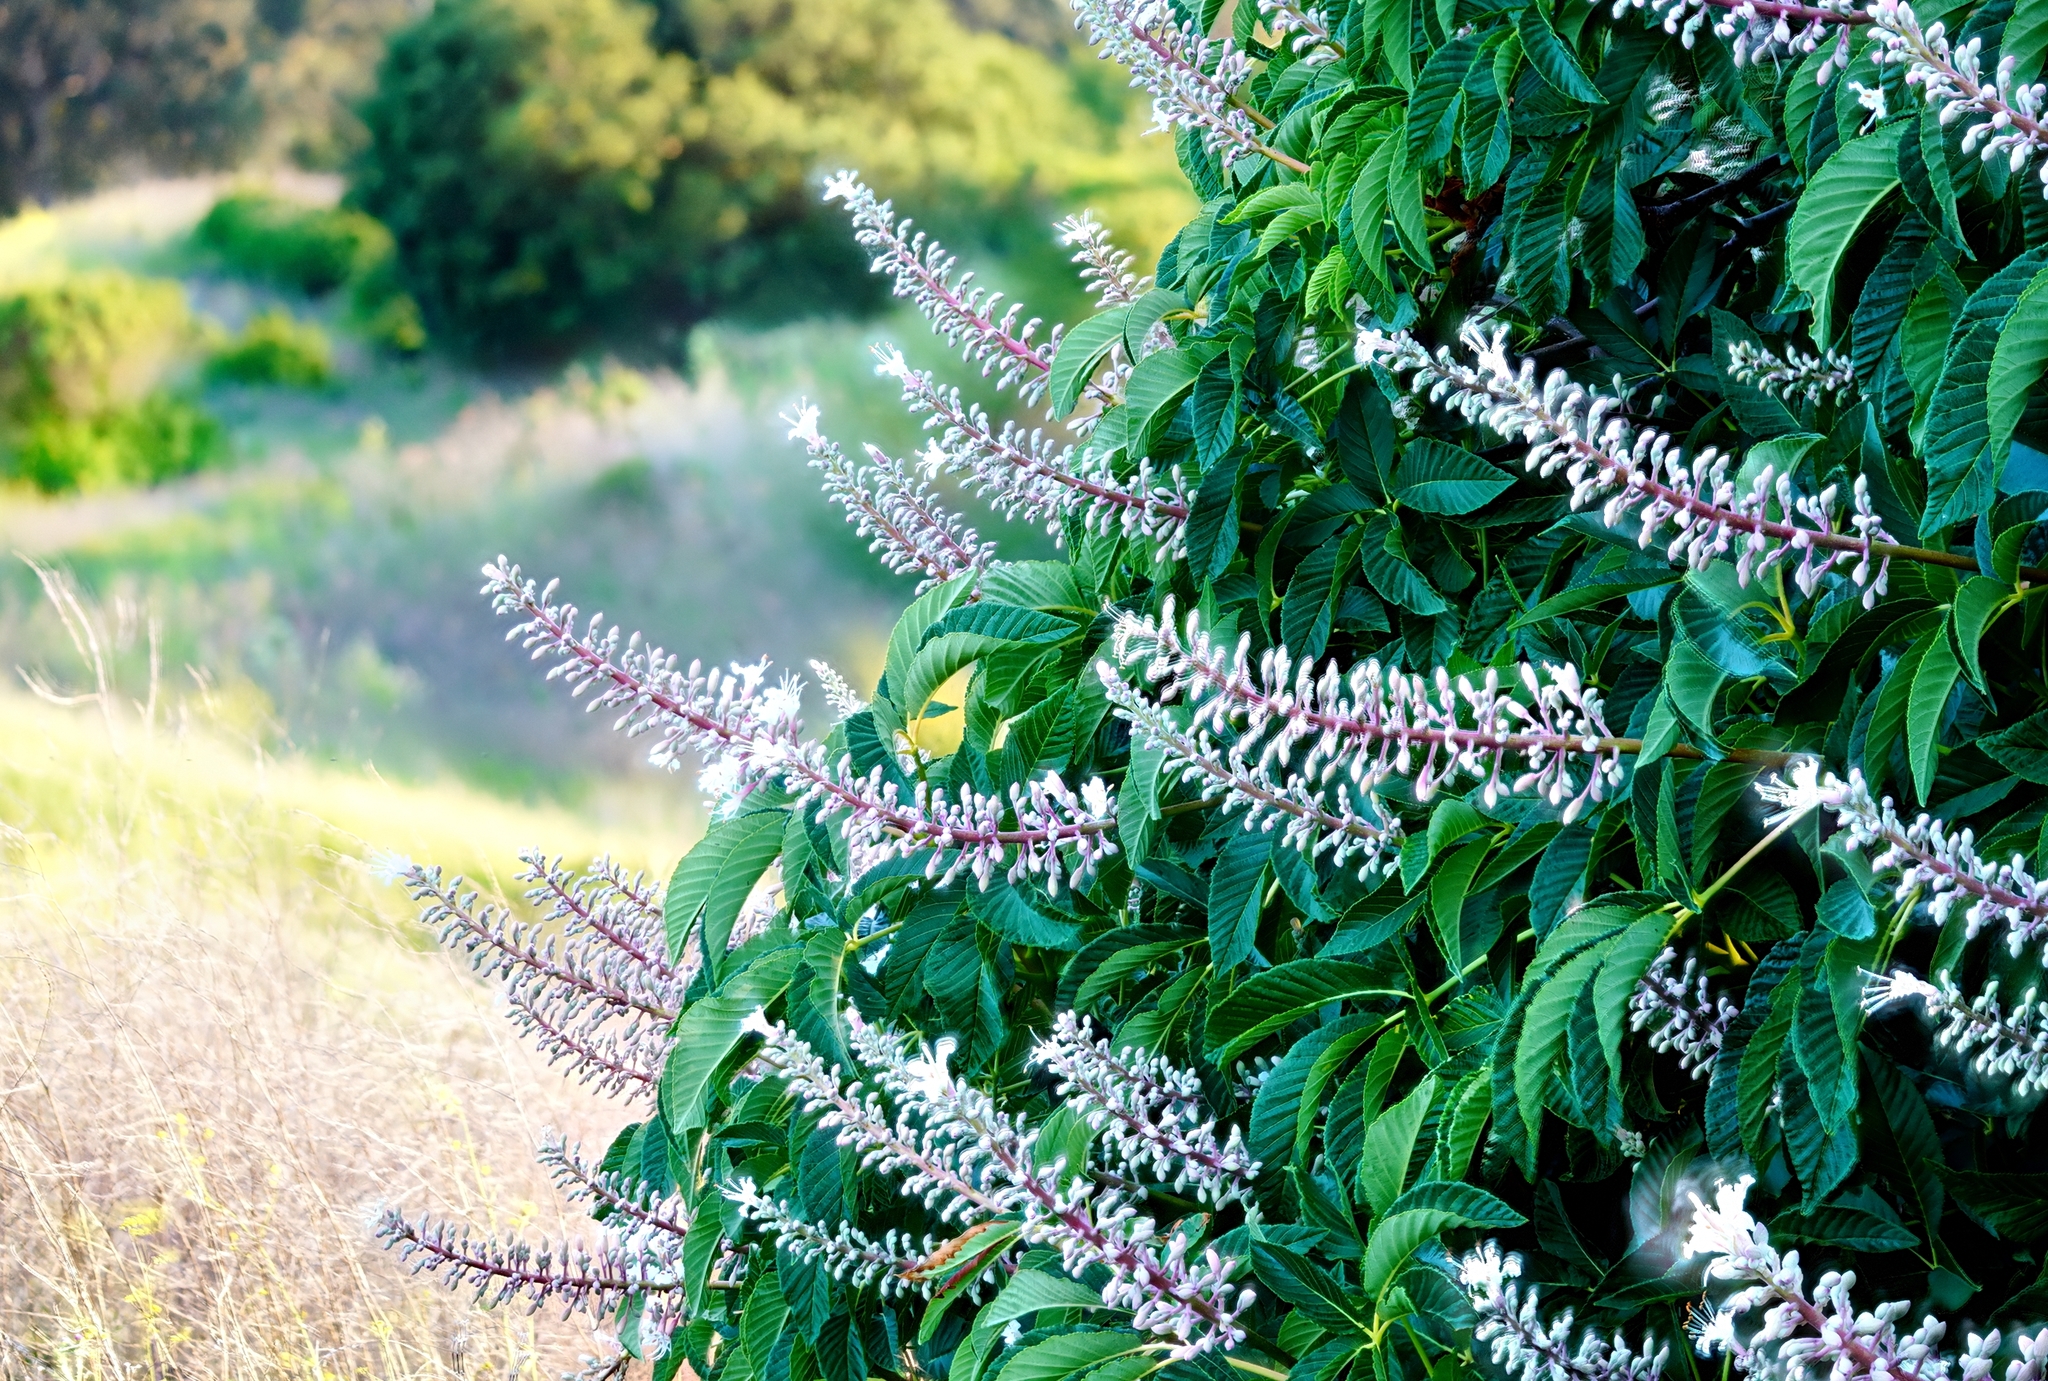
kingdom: Plantae
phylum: Tracheophyta
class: Magnoliopsida
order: Sapindales
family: Sapindaceae
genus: Aesculus
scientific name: Aesculus californica
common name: California buckeye
